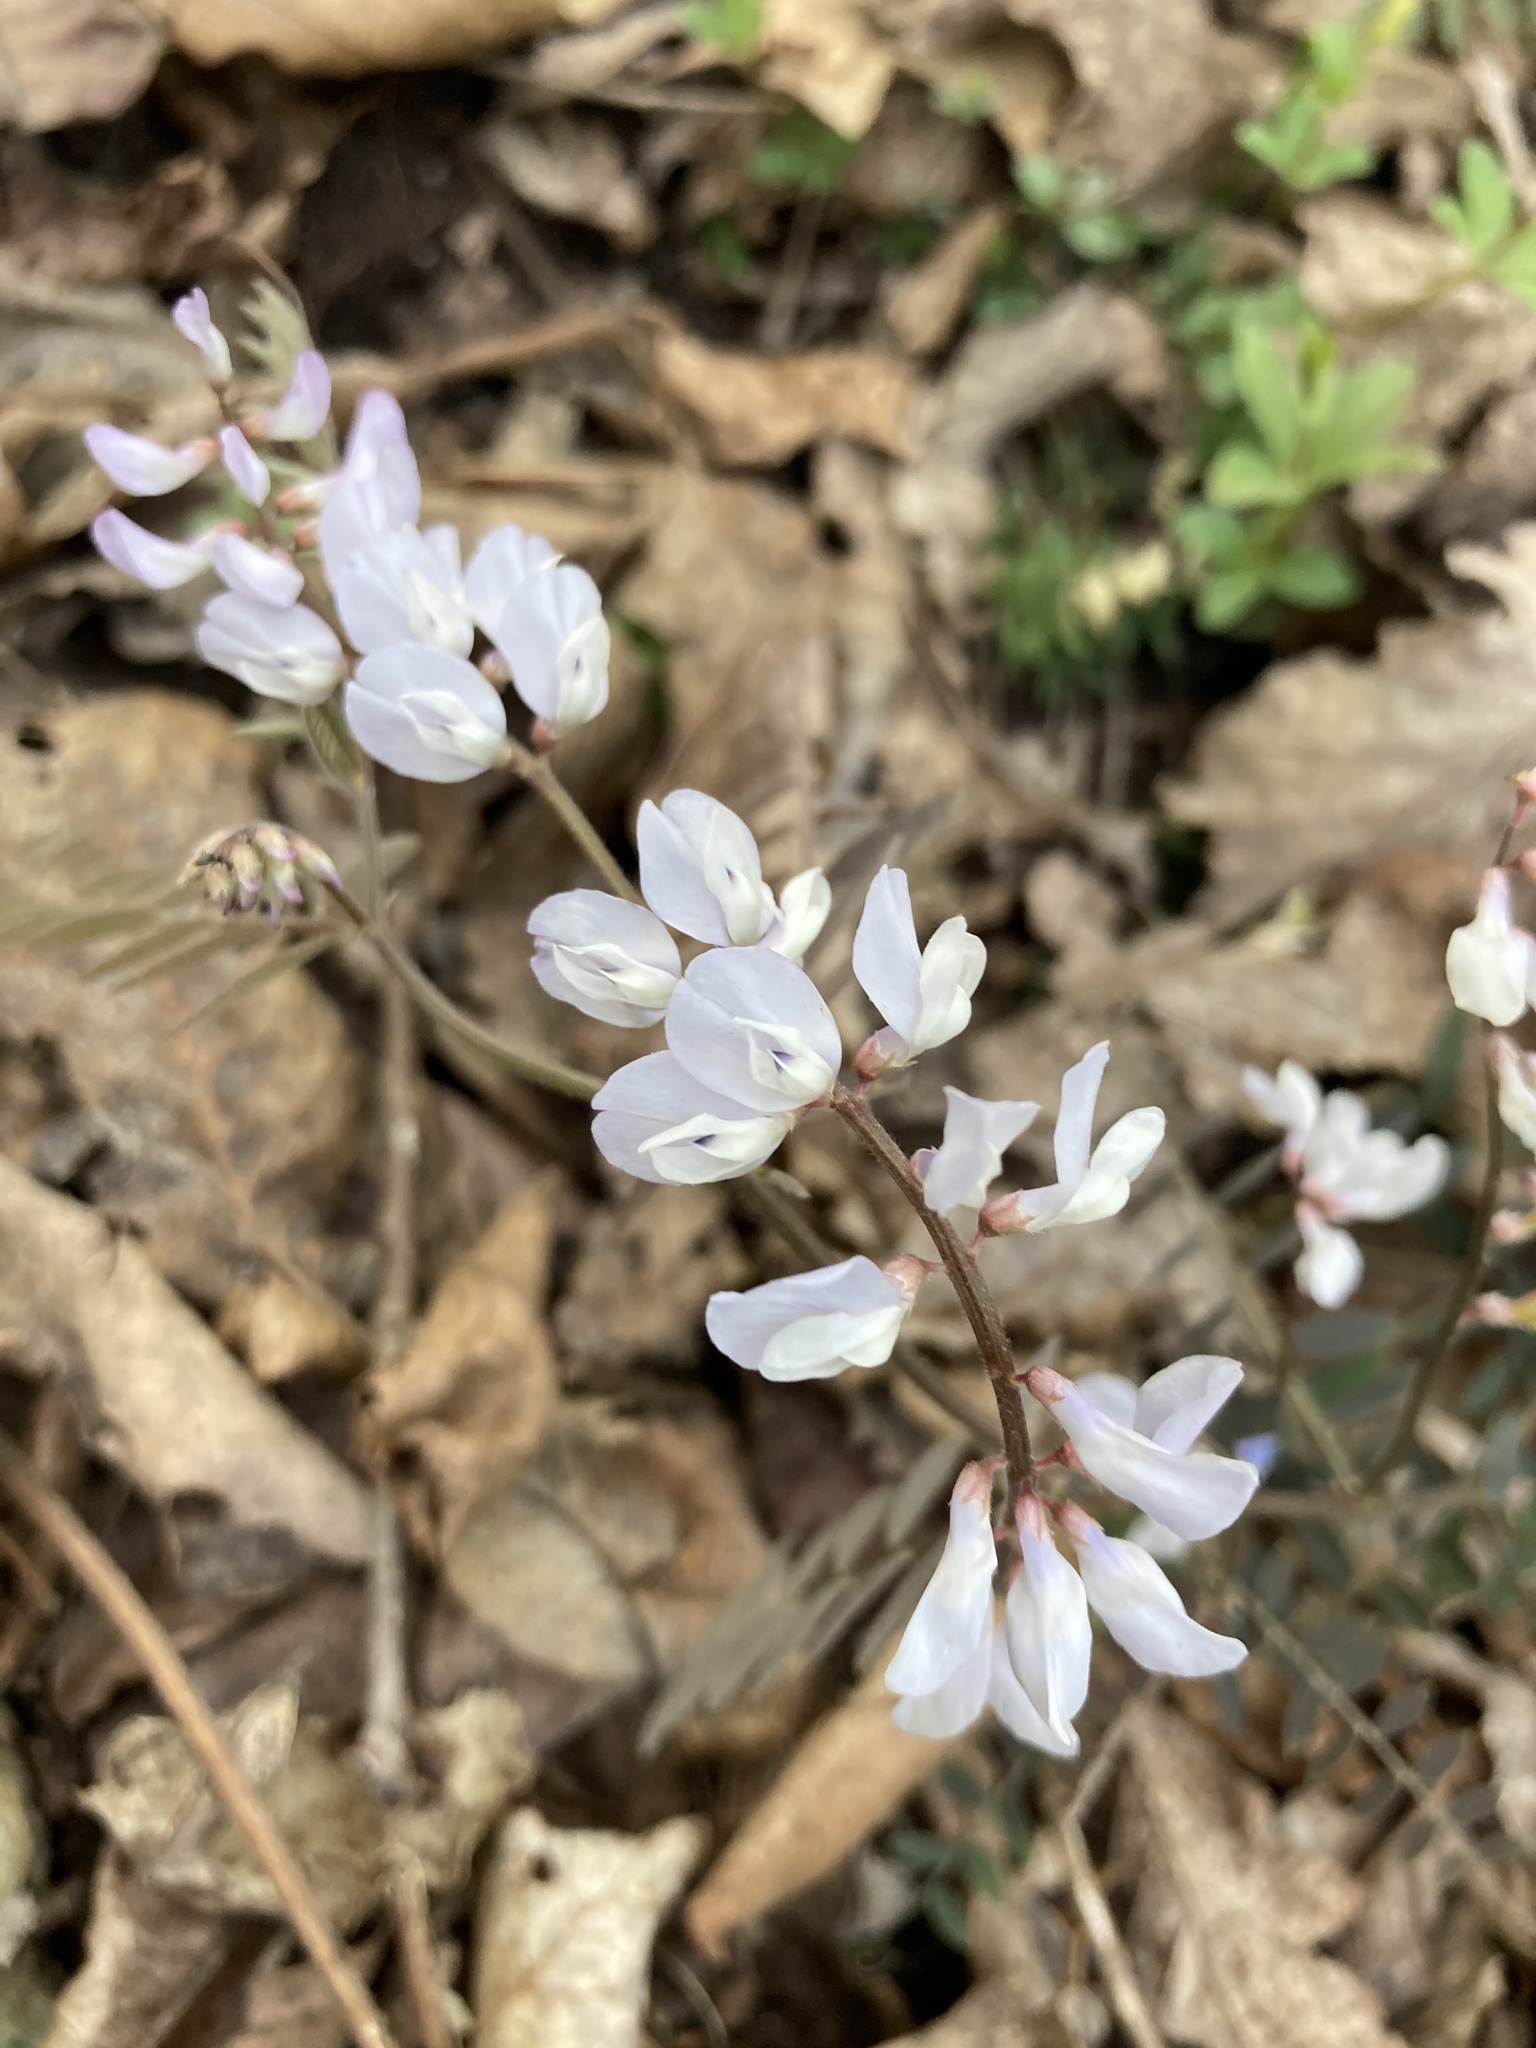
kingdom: Plantae
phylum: Tracheophyta
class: Magnoliopsida
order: Fabales
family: Fabaceae
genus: Vicia
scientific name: Vicia caroliniana
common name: Carolina vetch
